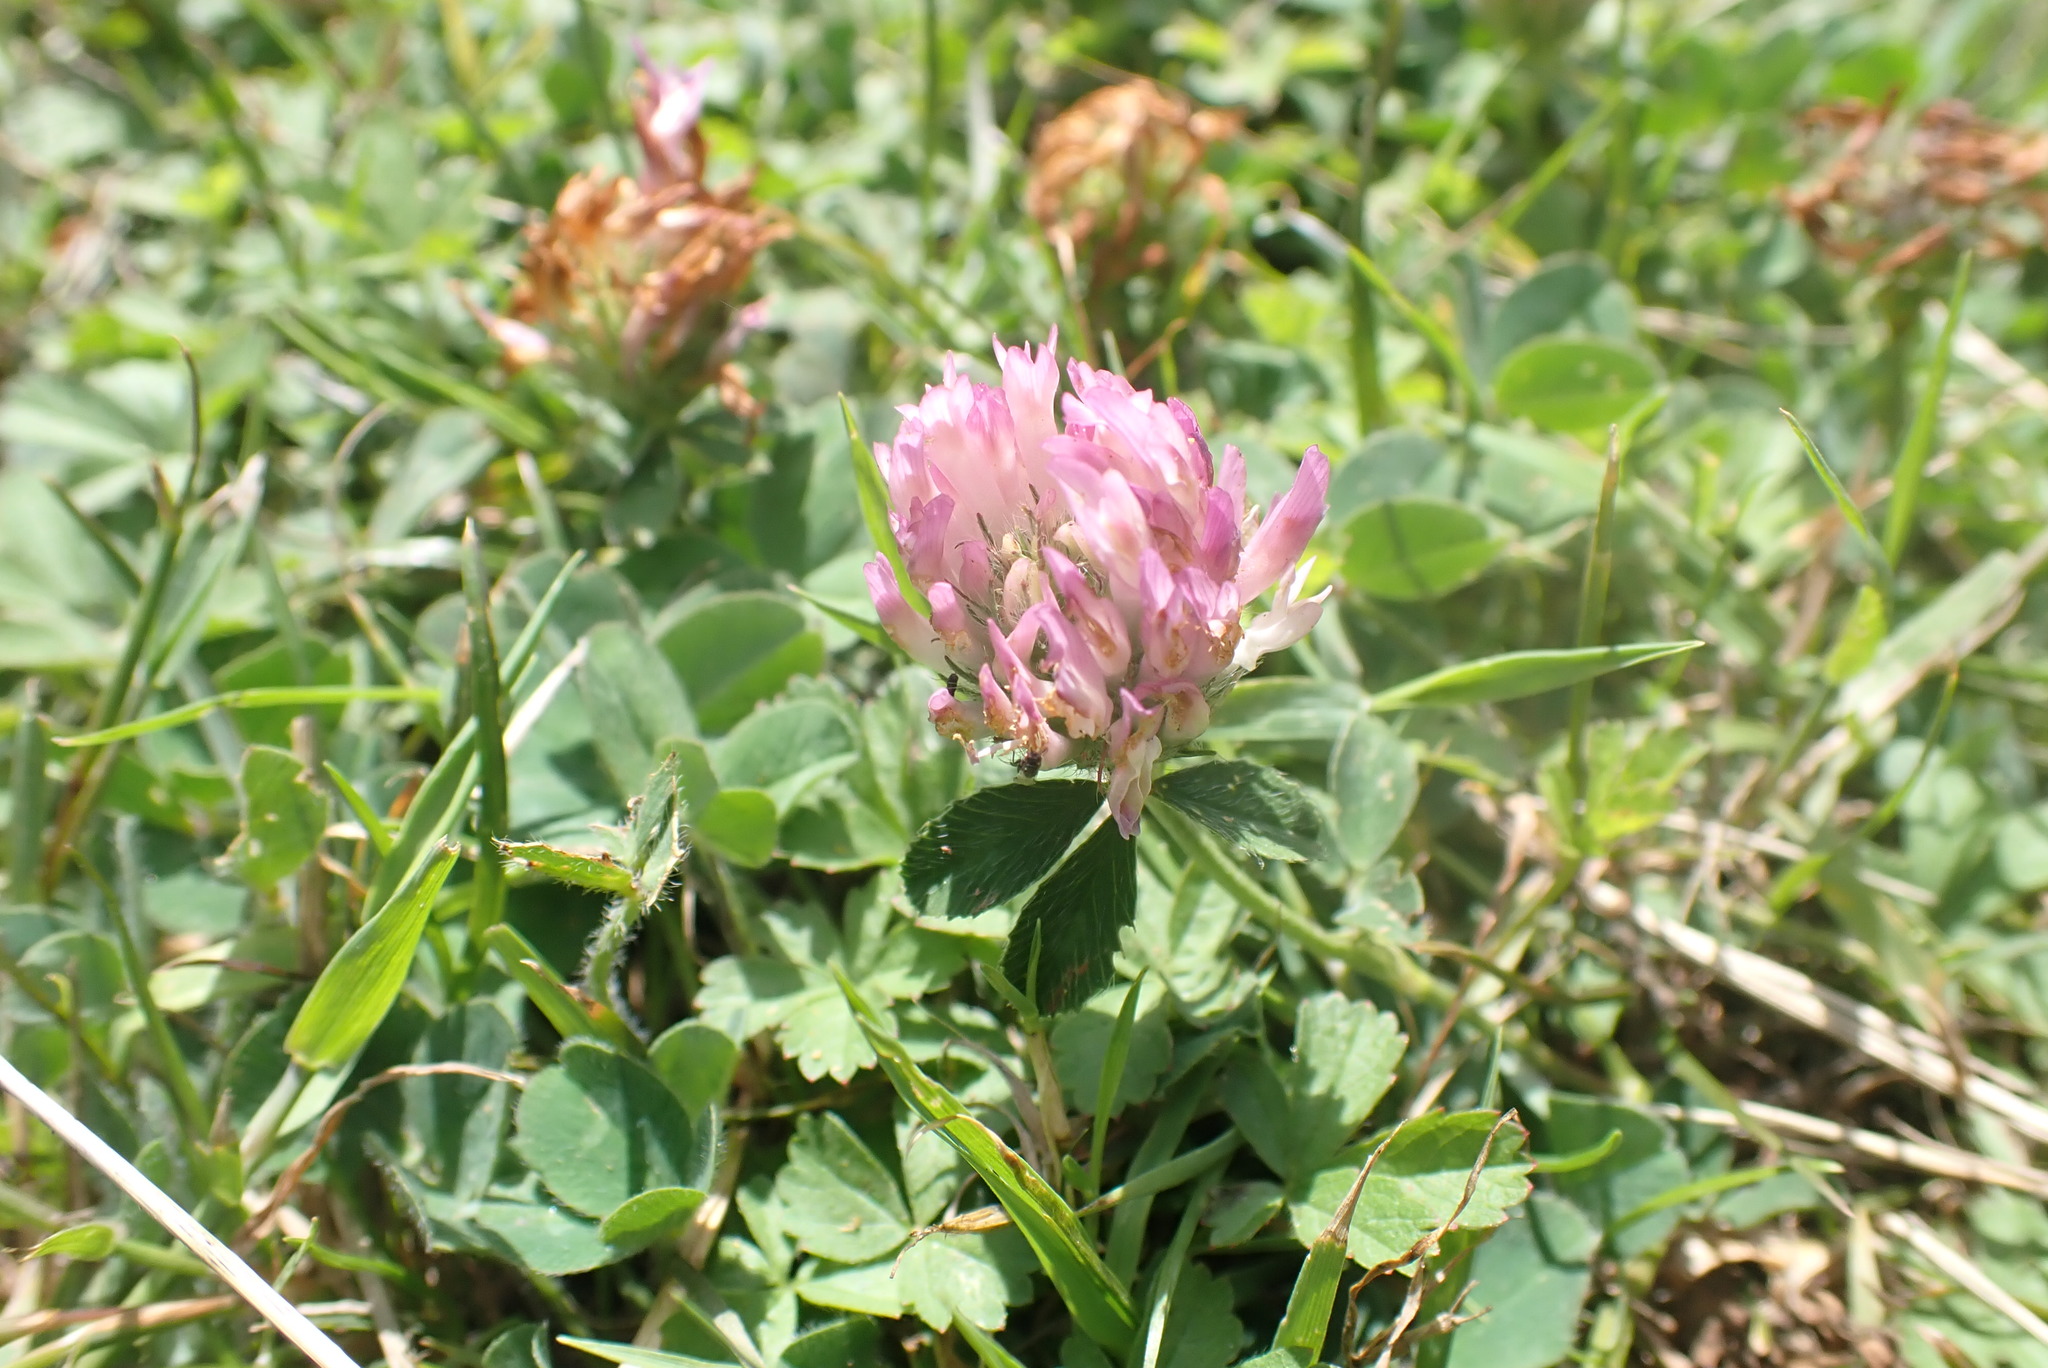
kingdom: Plantae
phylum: Tracheophyta
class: Magnoliopsida
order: Fabales
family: Fabaceae
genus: Trifolium
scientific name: Trifolium pratense
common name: Red clover
